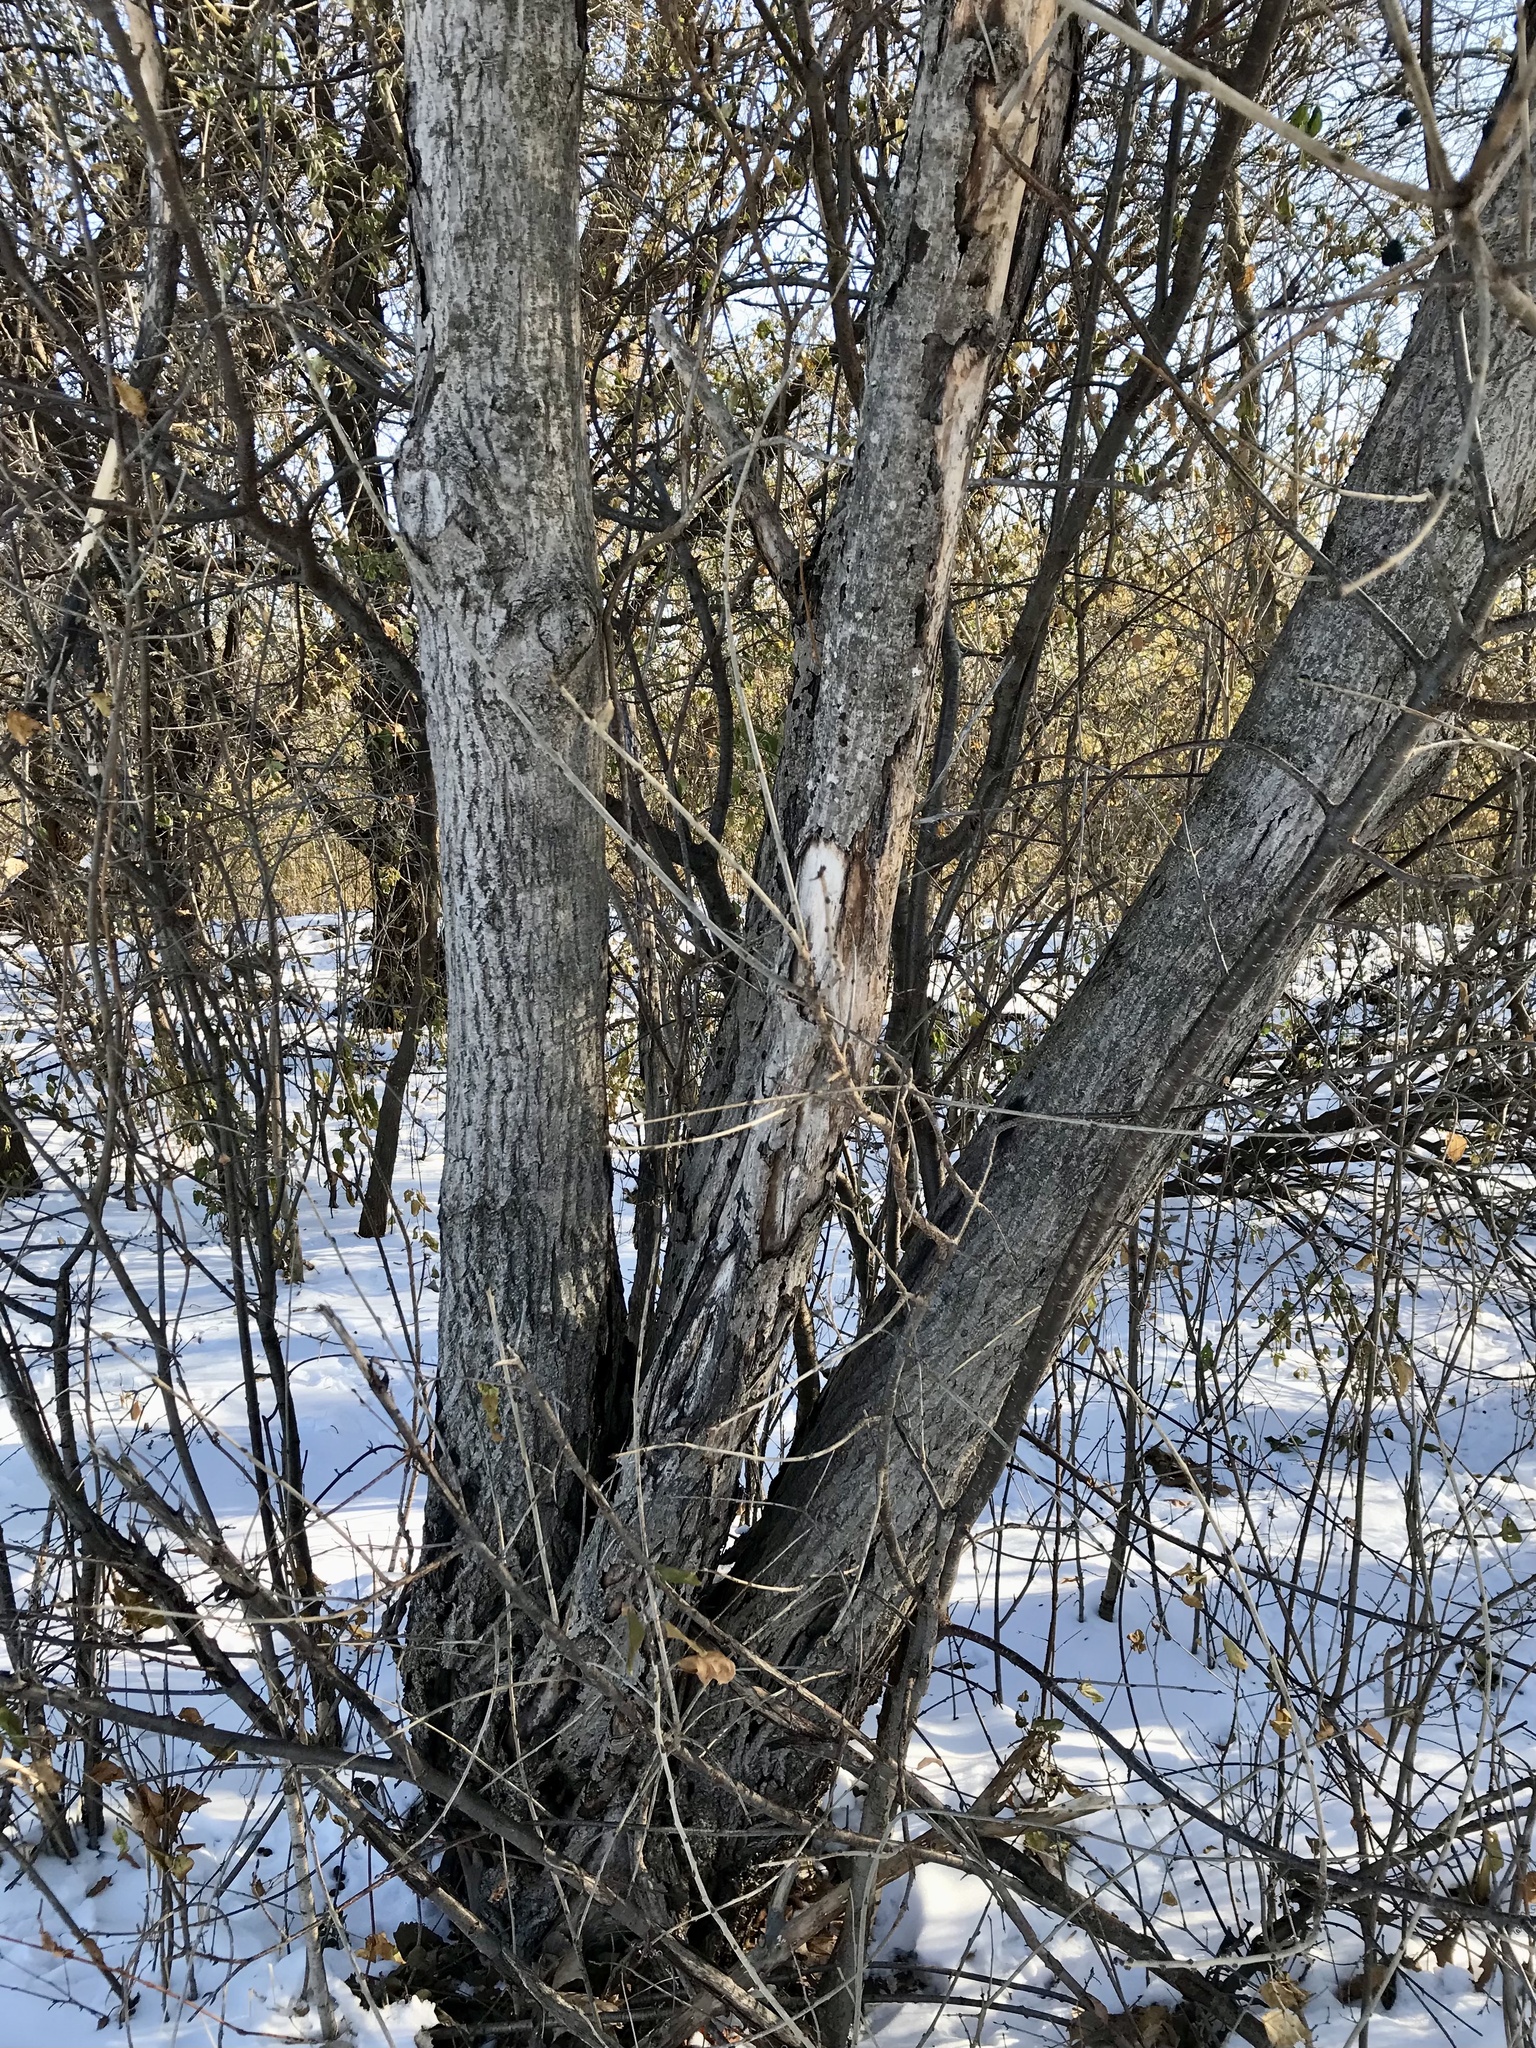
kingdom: Plantae
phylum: Tracheophyta
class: Magnoliopsida
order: Fagales
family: Juglandaceae
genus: Juglans
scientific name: Juglans cinerea
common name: Butternut
